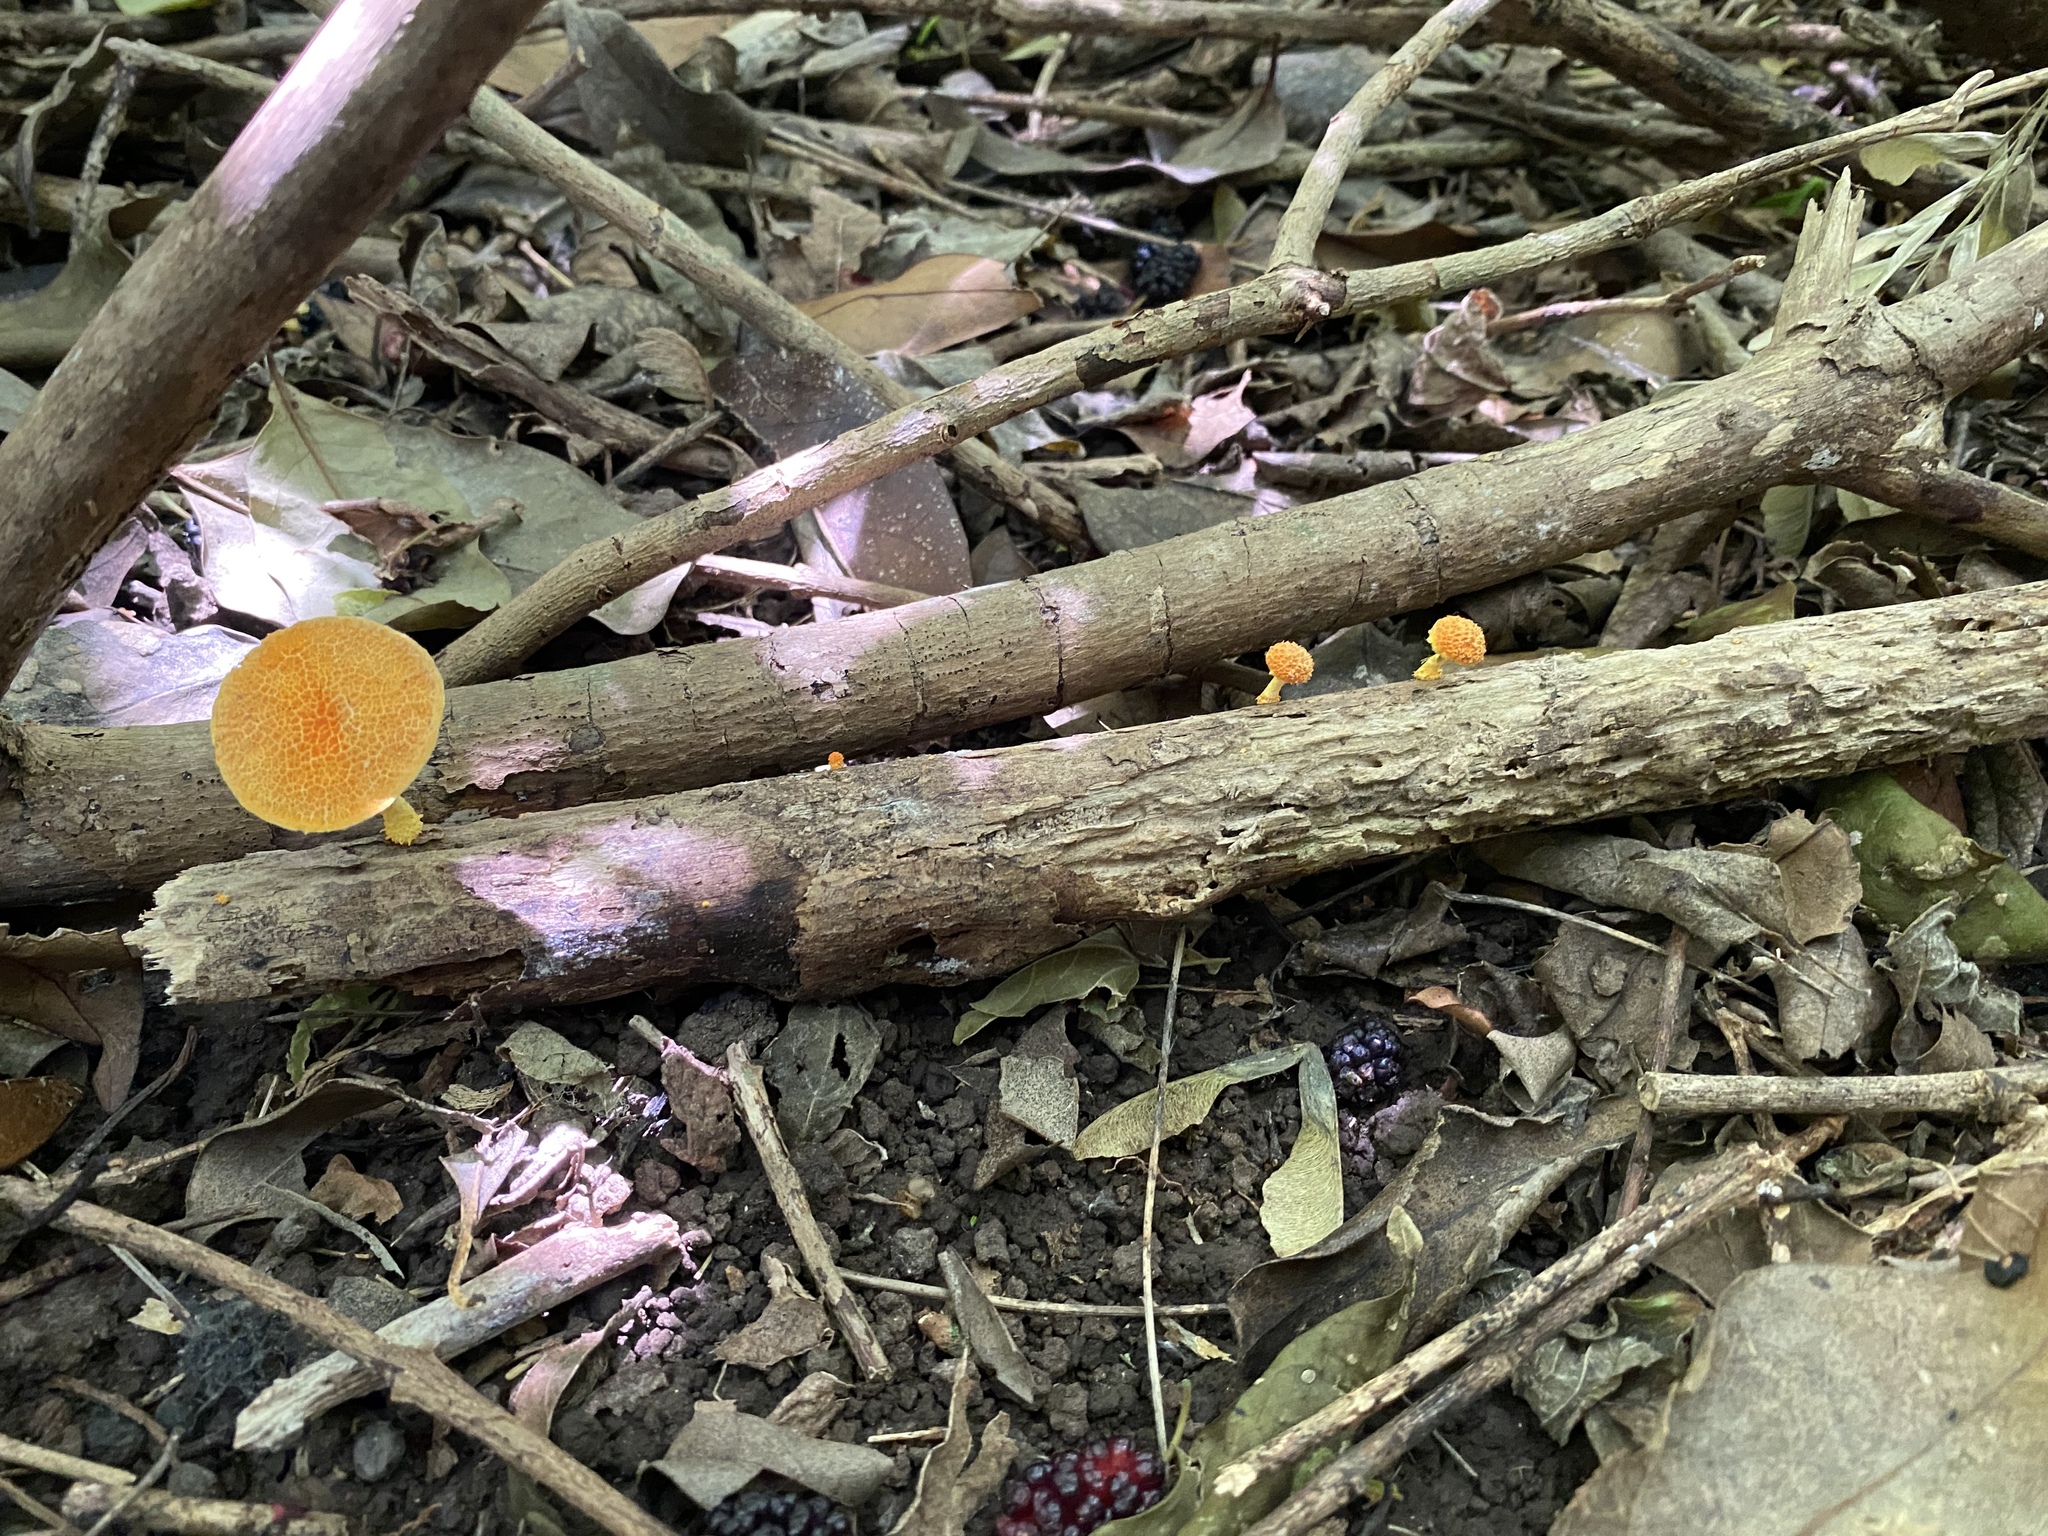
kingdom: Fungi
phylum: Basidiomycota
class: Agaricomycetes
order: Agaricales
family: Physalacriaceae
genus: Cyptotrama
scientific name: Cyptotrama asprata
